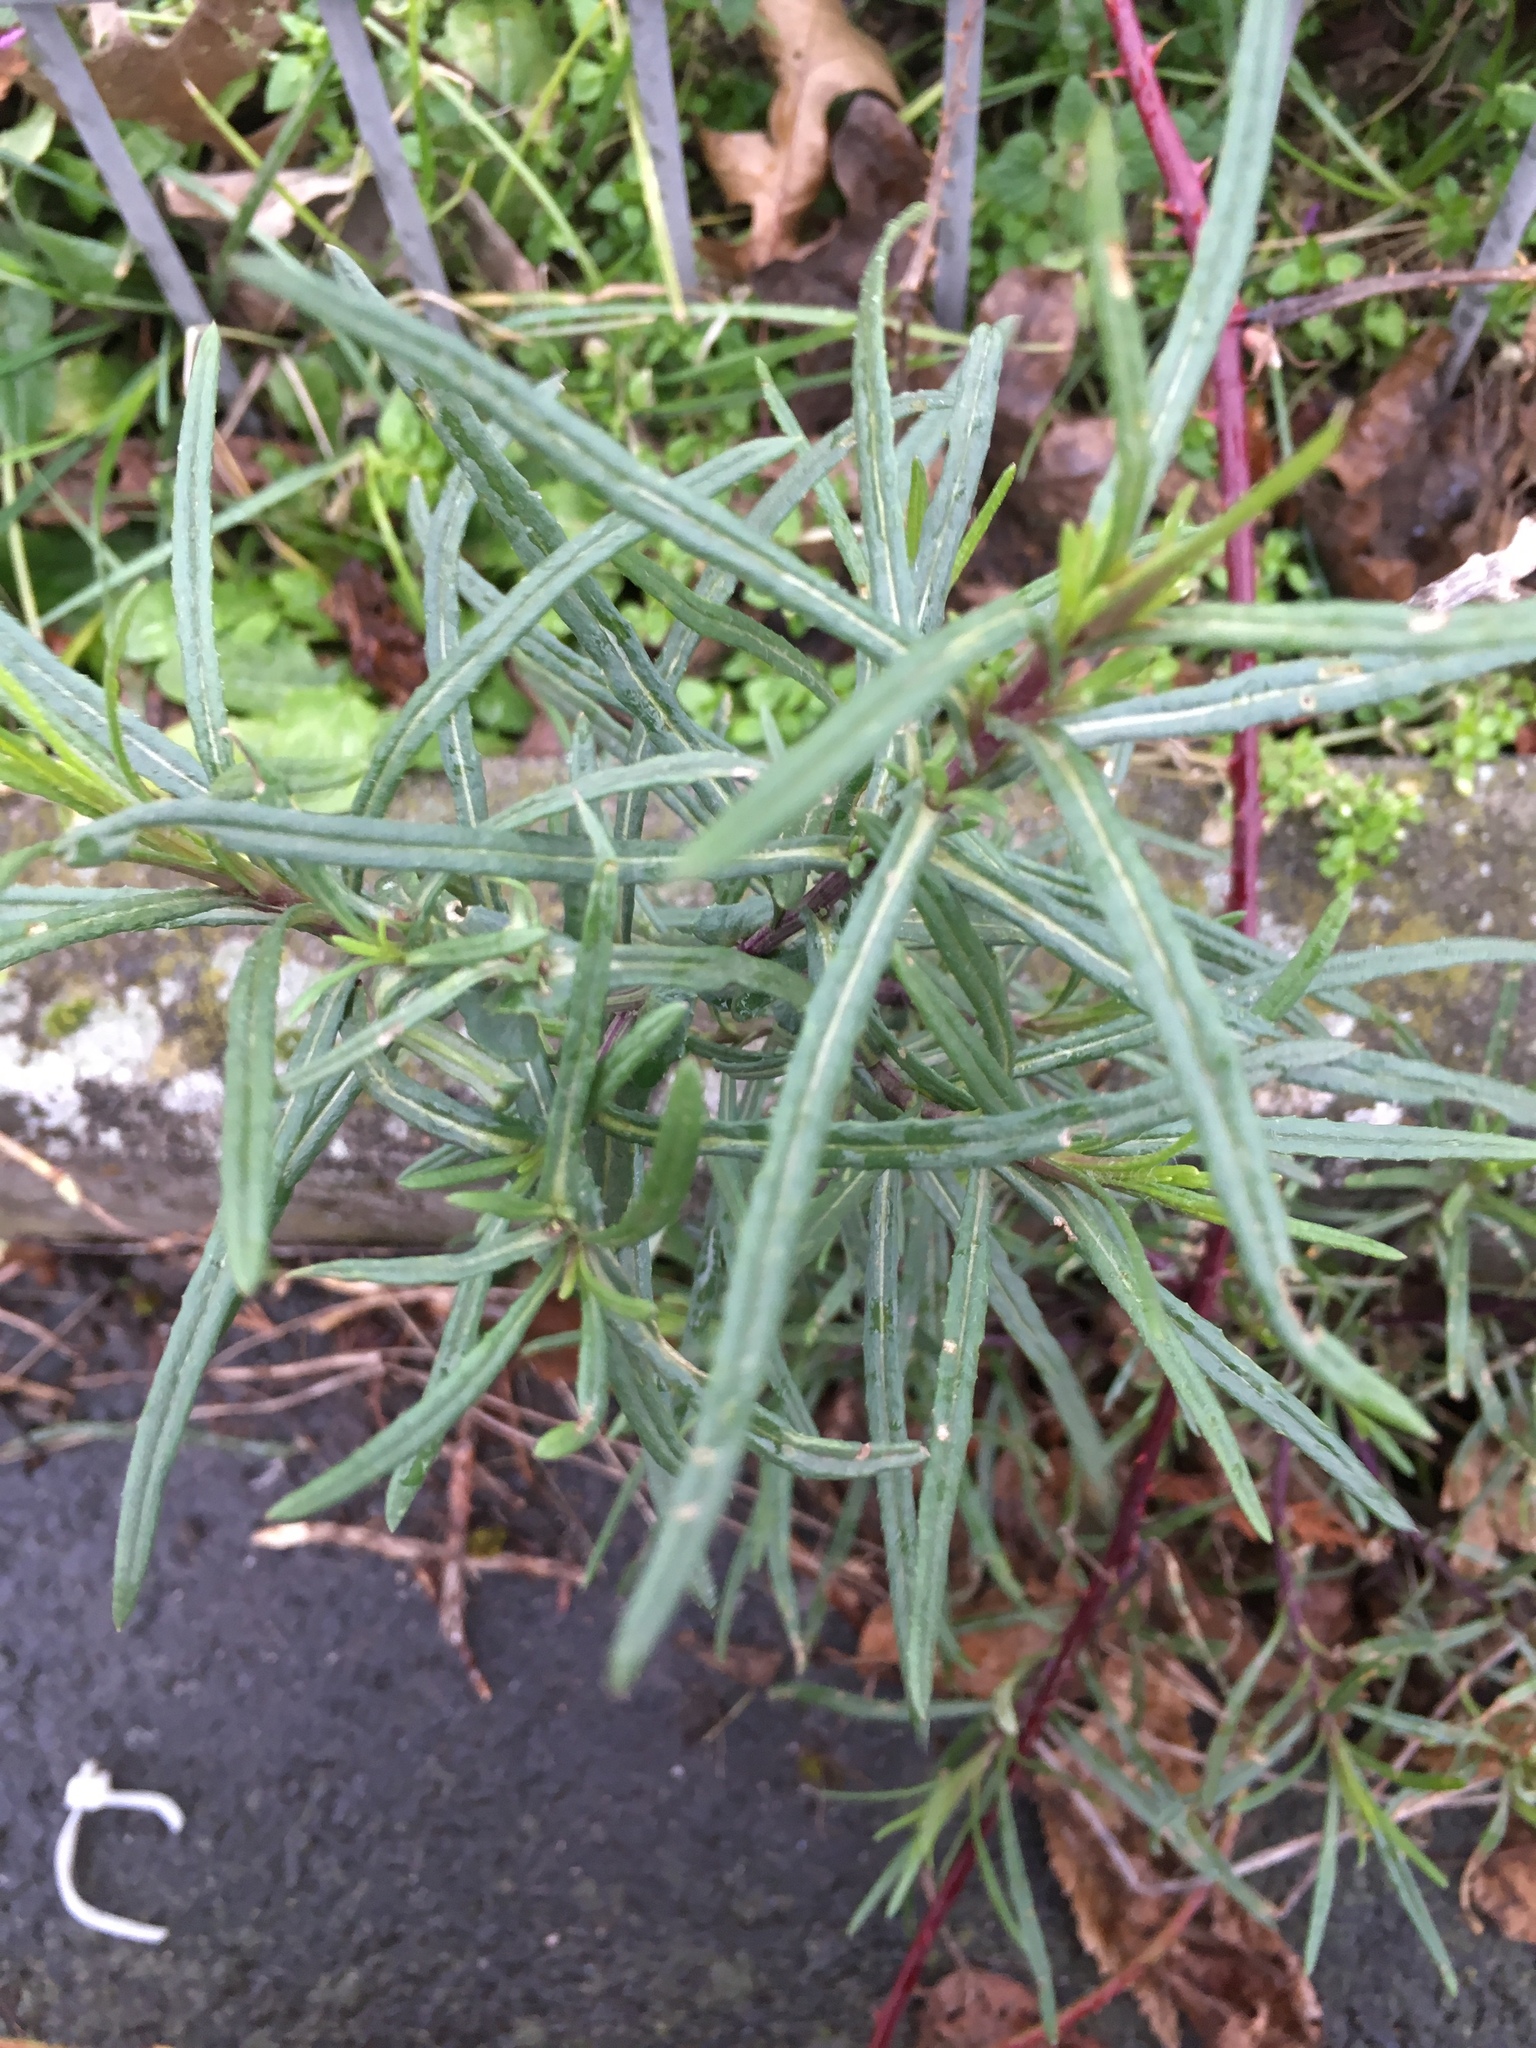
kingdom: Plantae
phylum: Tracheophyta
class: Magnoliopsida
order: Asterales
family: Asteraceae
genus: Senecio
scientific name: Senecio inaequidens
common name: Narrow-leaved ragwort
